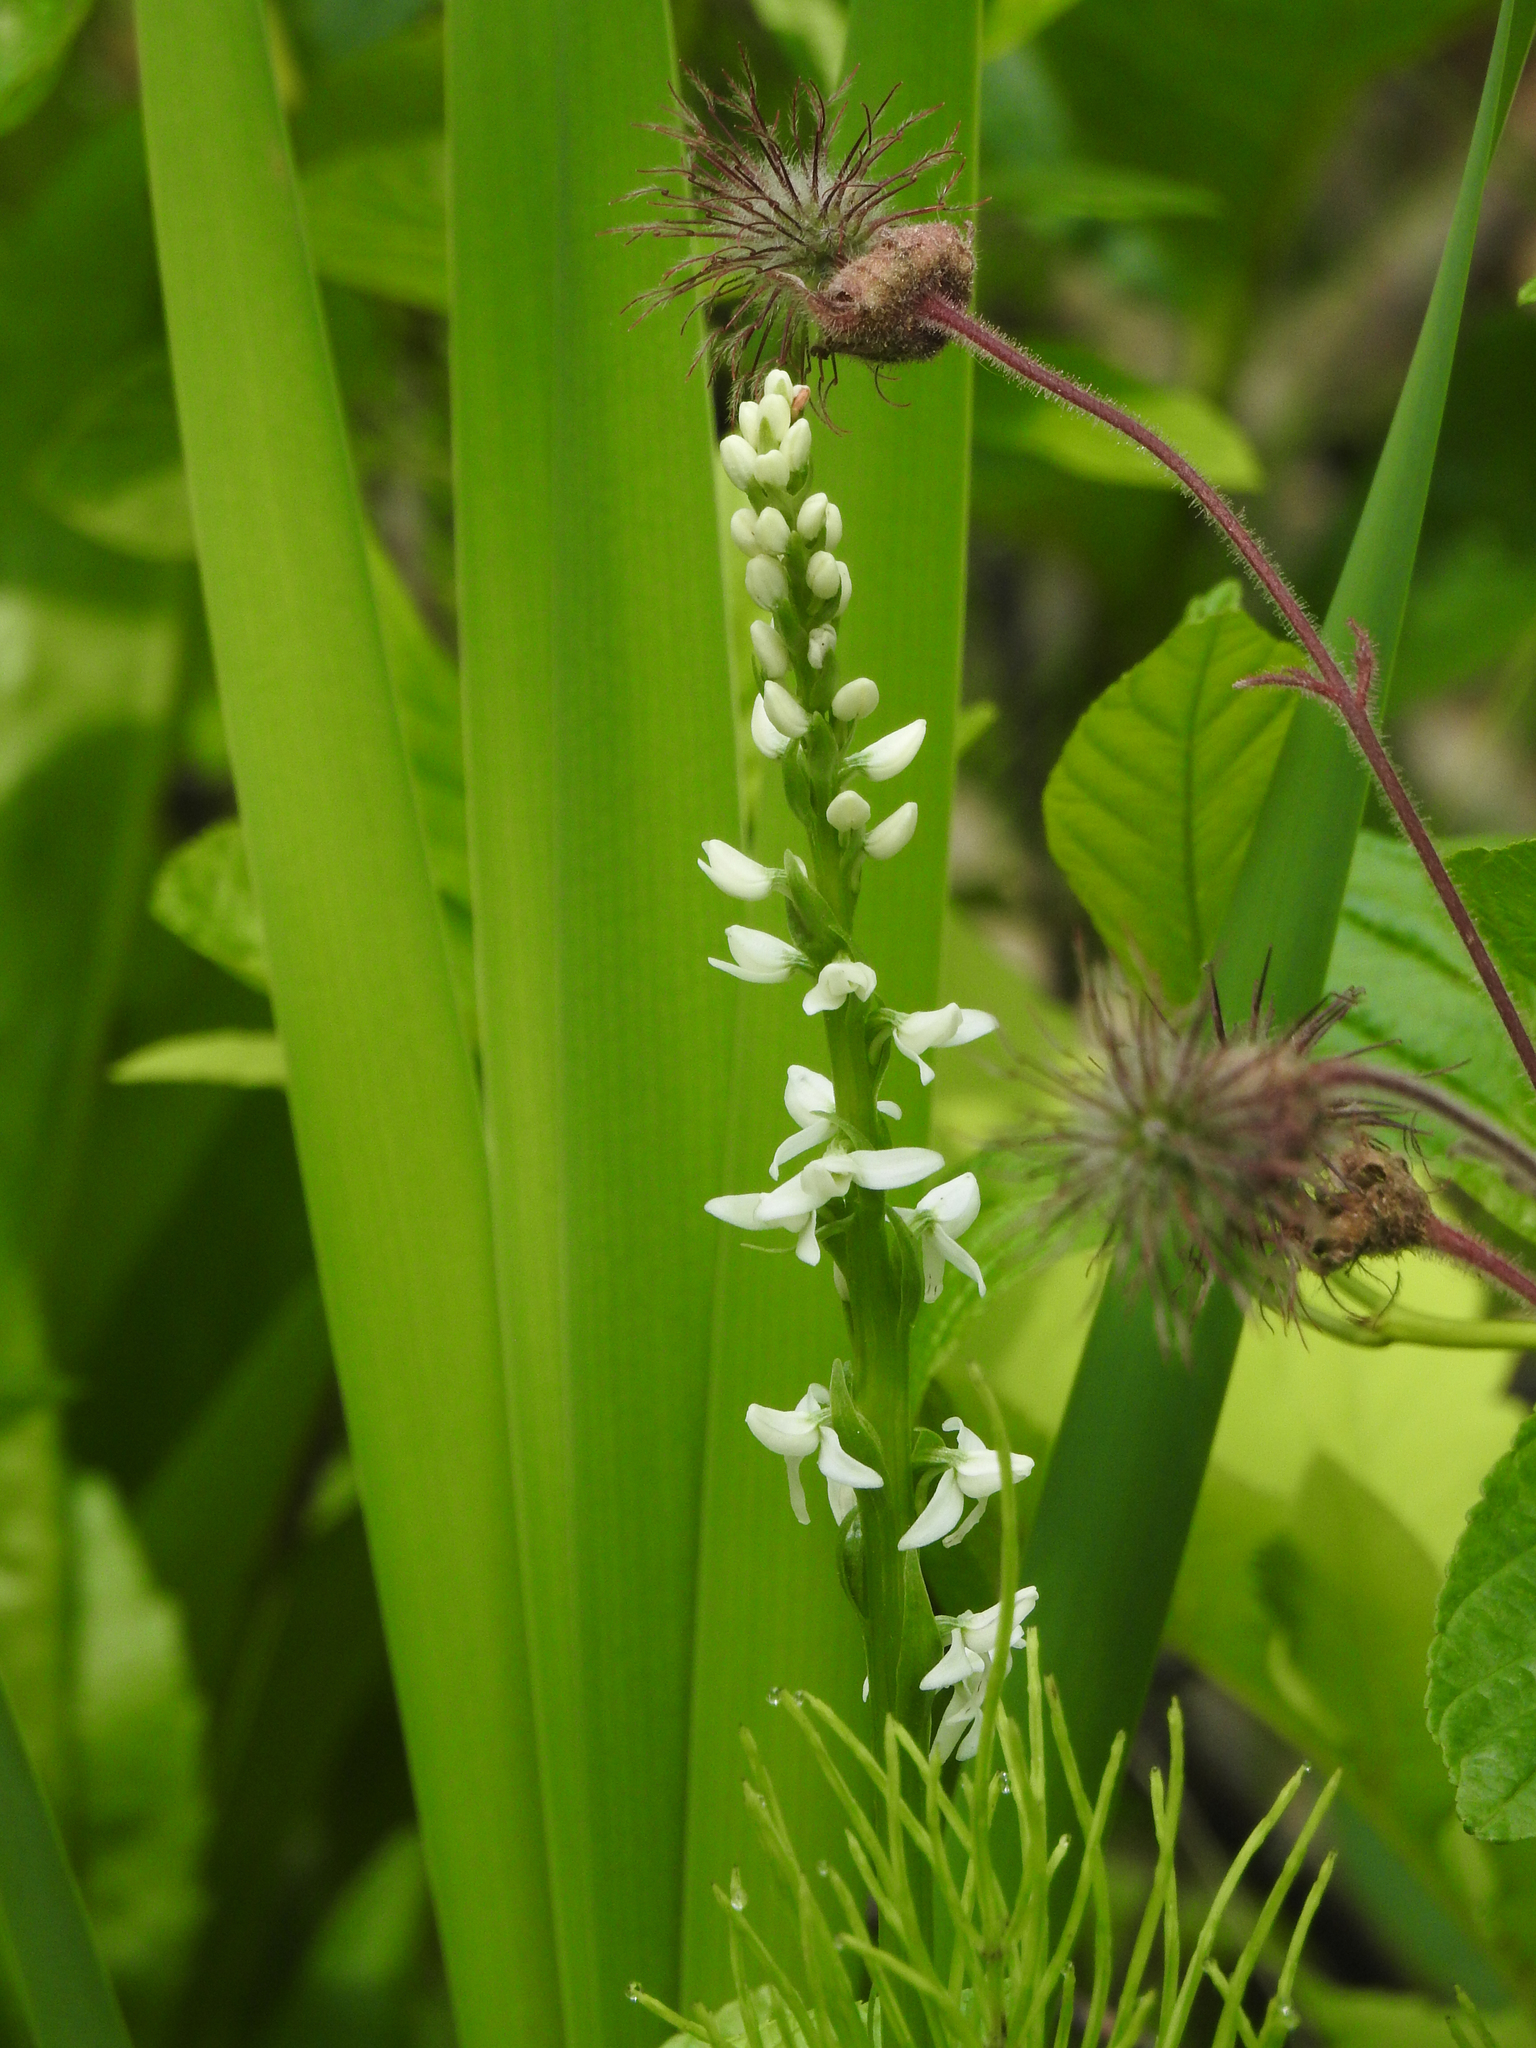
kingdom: Plantae
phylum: Tracheophyta
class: Liliopsida
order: Asparagales
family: Orchidaceae
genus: Platanthera
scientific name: Platanthera dilatata
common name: Bog candles
